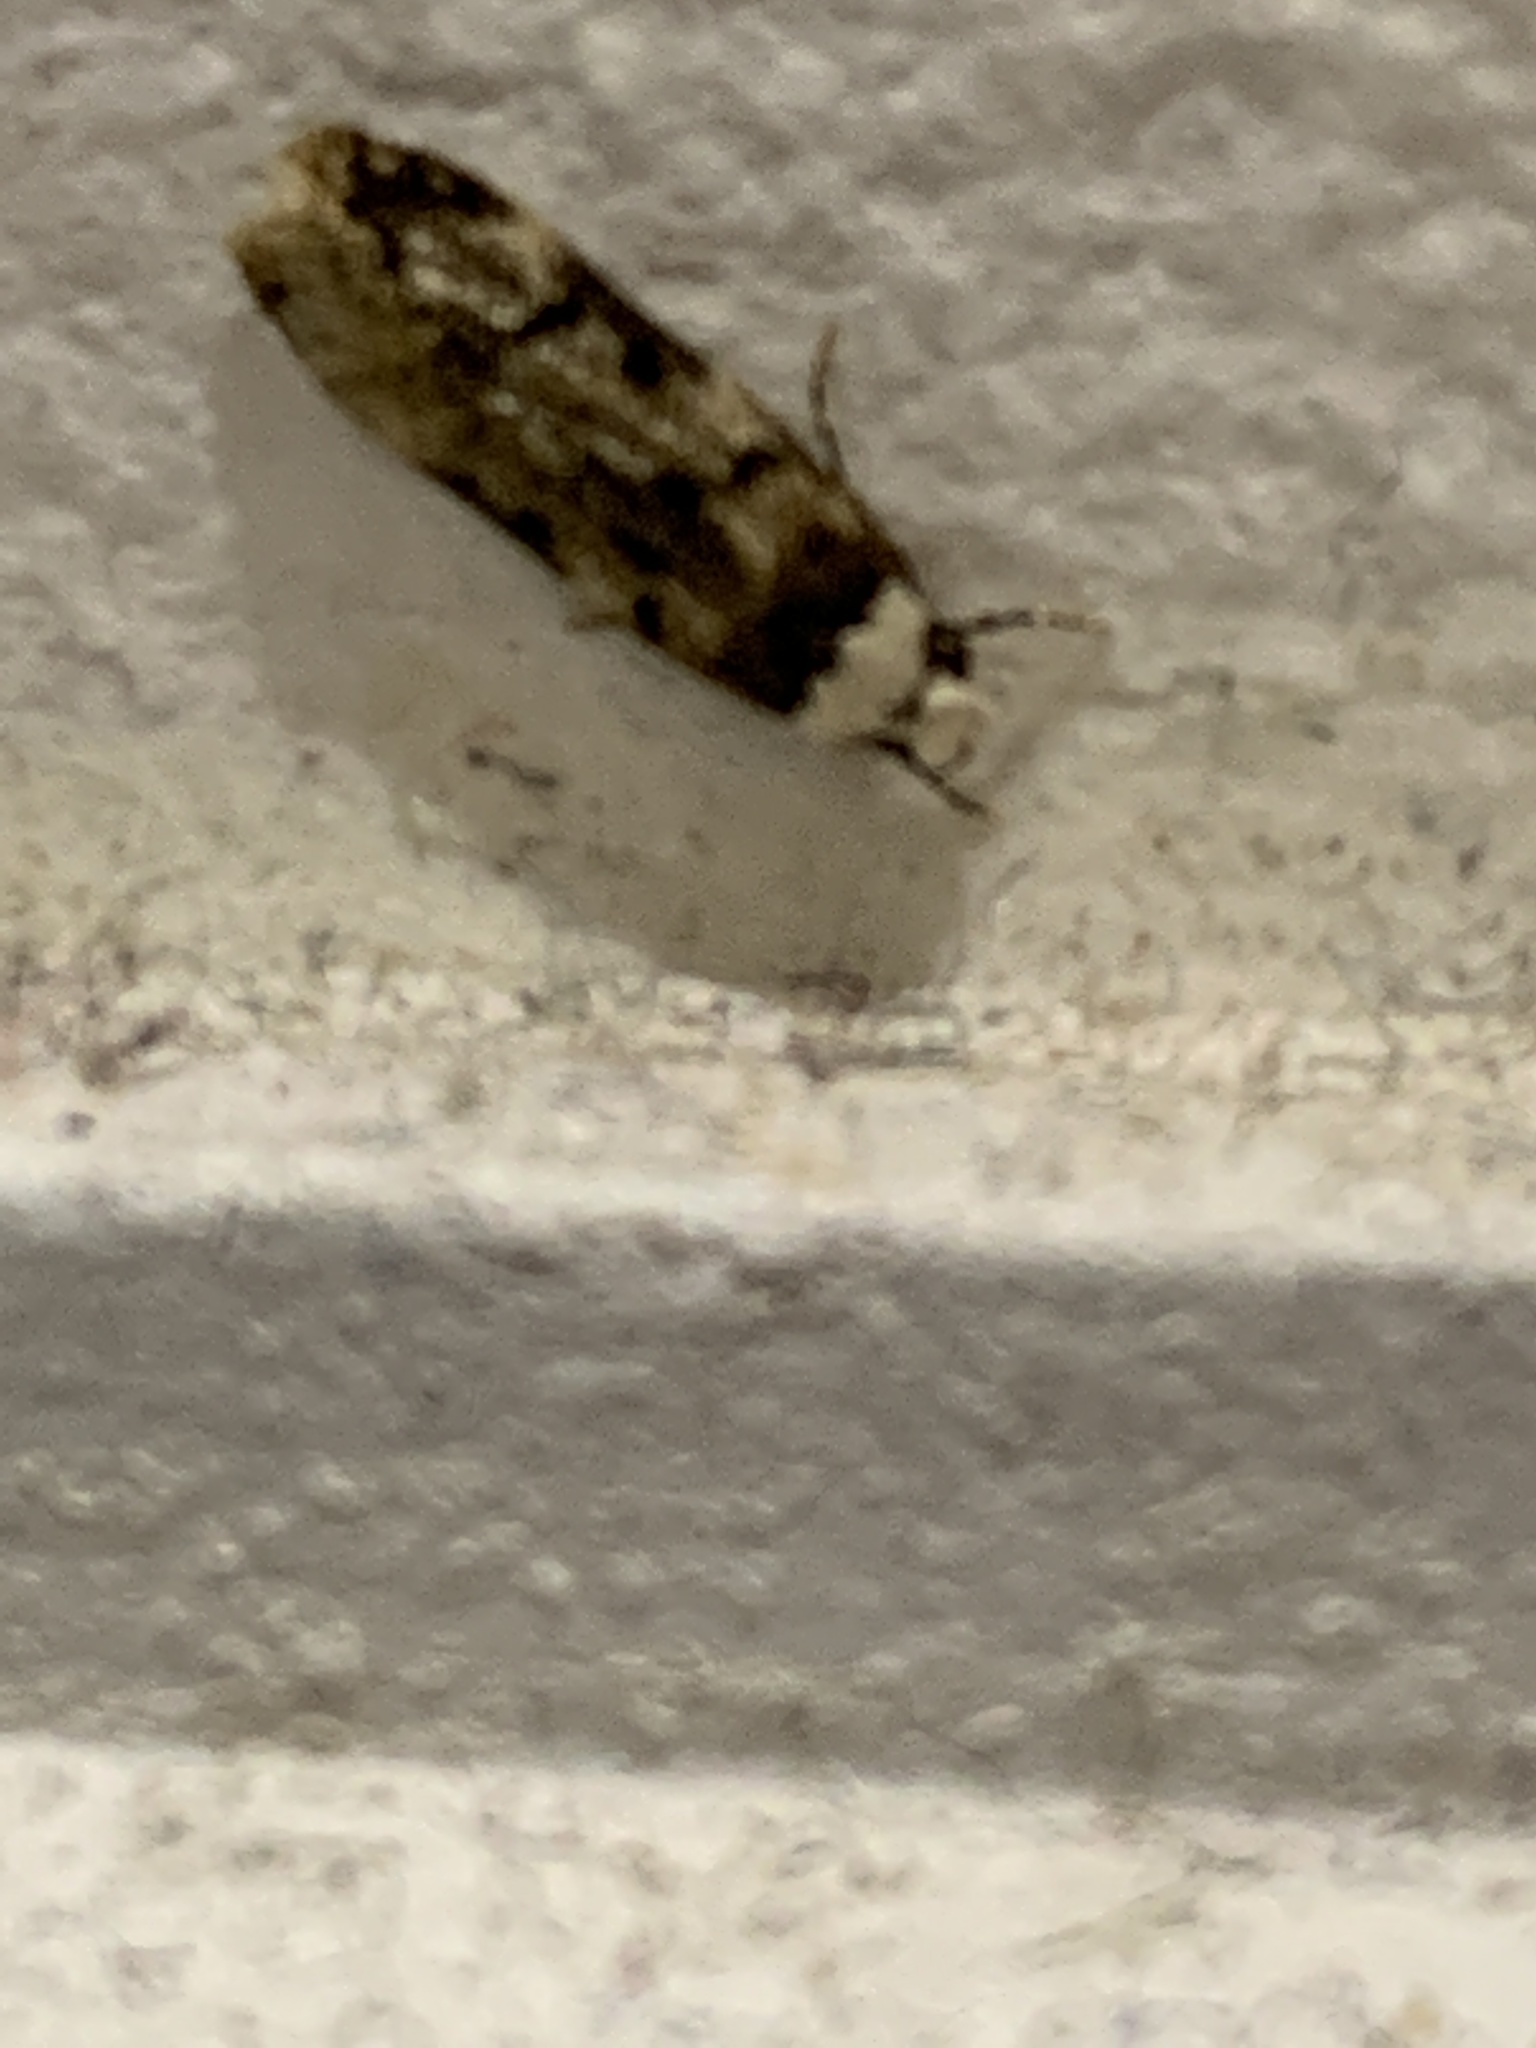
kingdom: Animalia
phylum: Arthropoda
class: Insecta
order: Lepidoptera
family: Oecophoridae
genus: Endrosis
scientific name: Endrosis sarcitrella
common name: White-shouldered house moth
